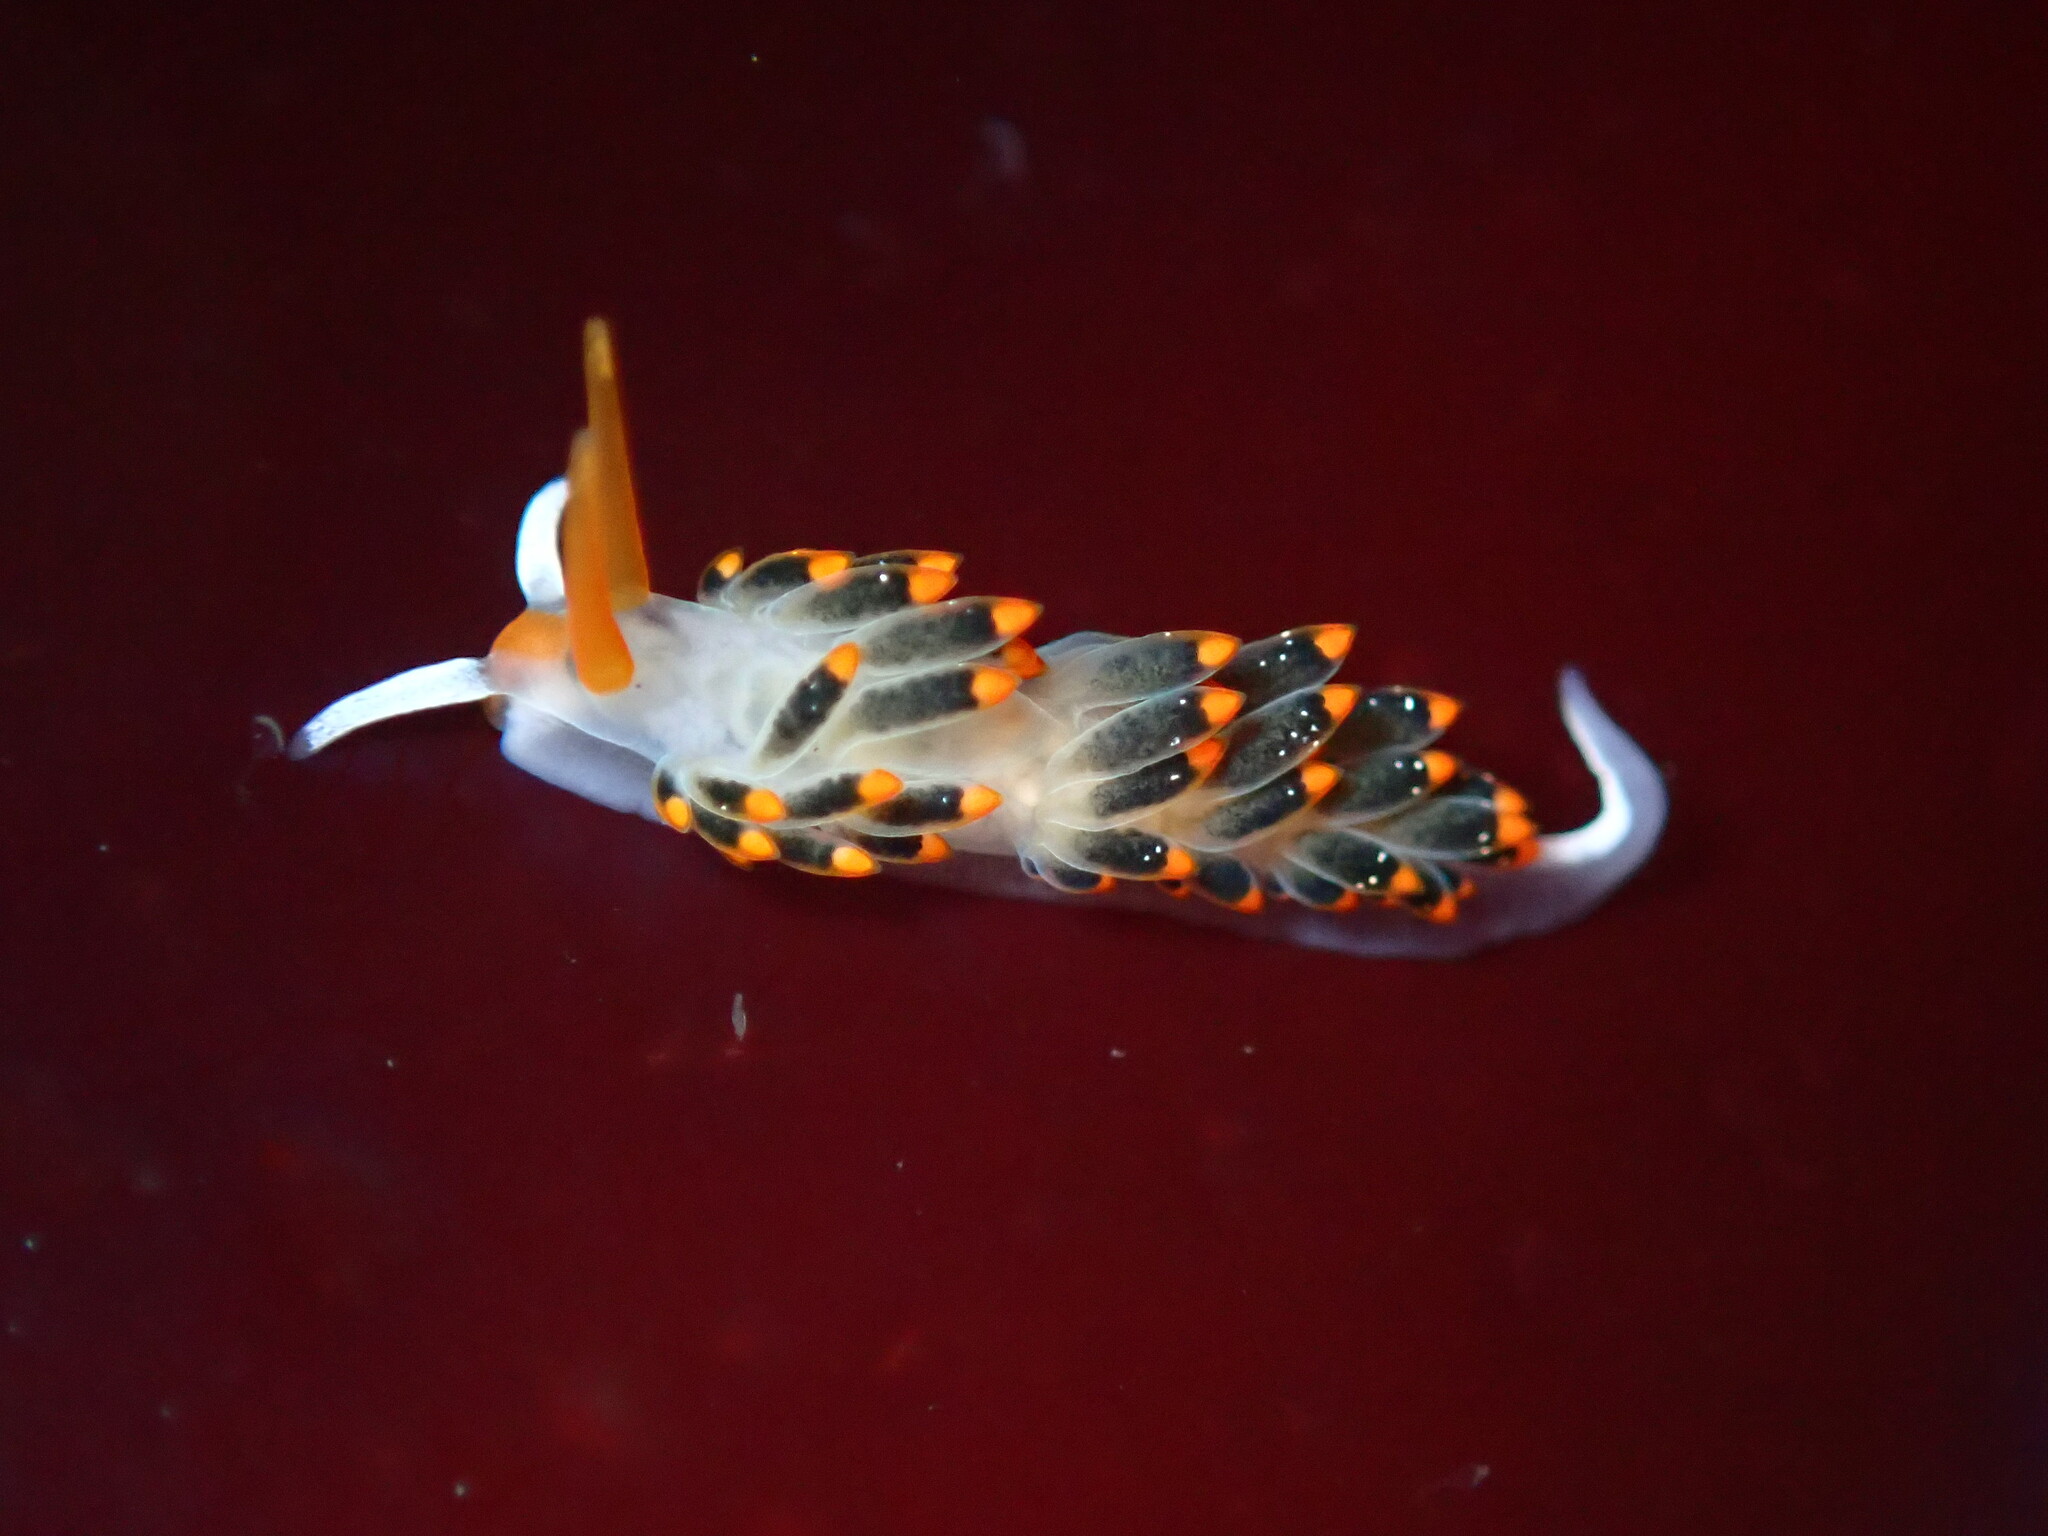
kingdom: Animalia
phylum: Mollusca
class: Gastropoda
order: Nudibranchia
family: Trinchesiidae
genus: Diaphoreolis
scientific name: Diaphoreolis lagunae
